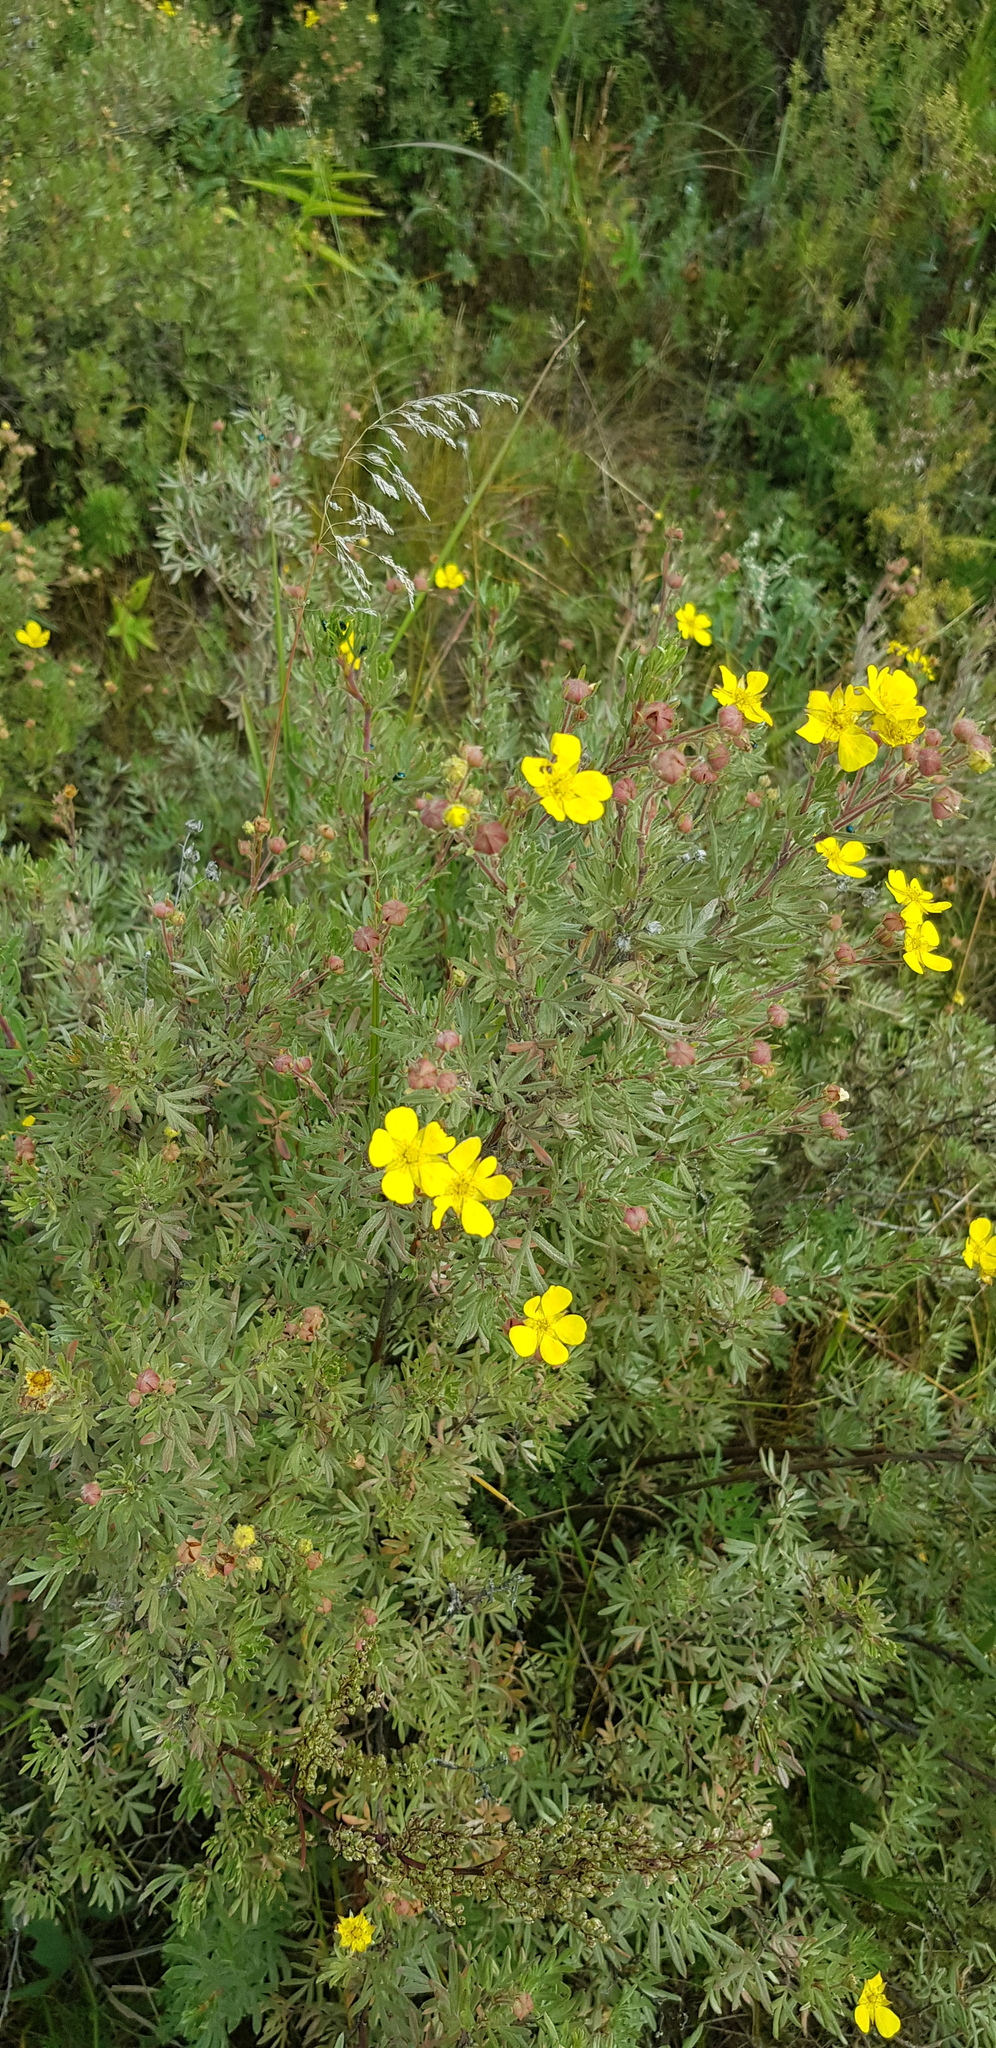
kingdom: Plantae
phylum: Tracheophyta
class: Magnoliopsida
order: Rosales
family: Rosaceae
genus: Dasiphora
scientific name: Dasiphora parvifolia
